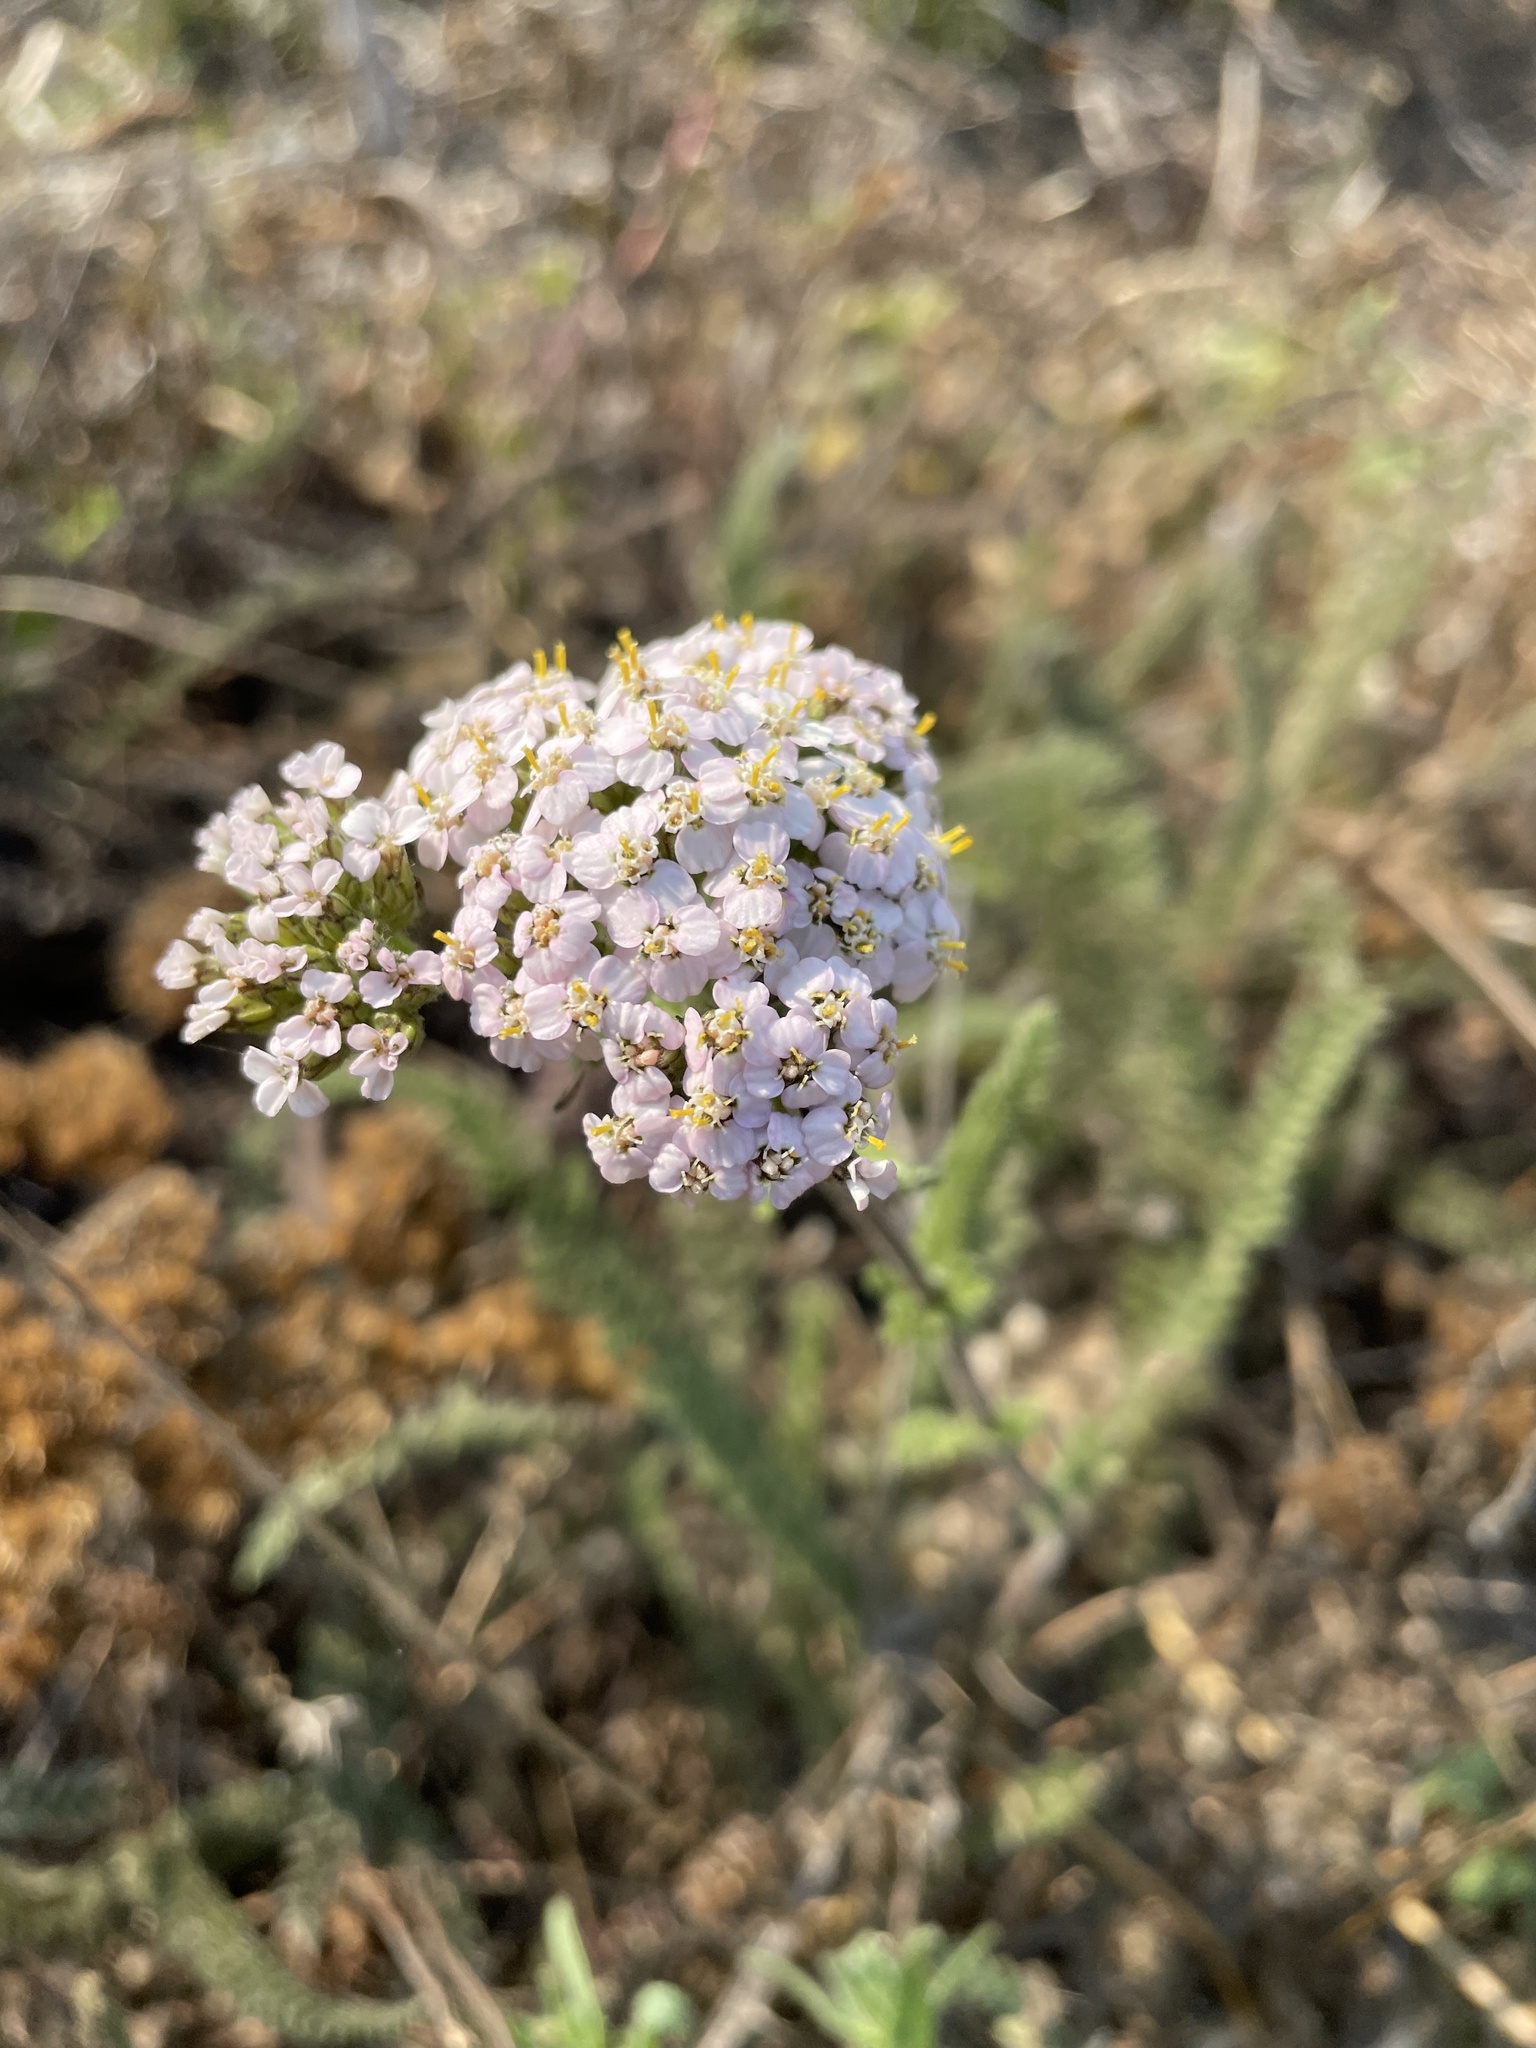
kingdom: Plantae
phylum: Tracheophyta
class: Magnoliopsida
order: Asterales
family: Asteraceae
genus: Achillea
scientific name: Achillea millefolium
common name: Yarrow
